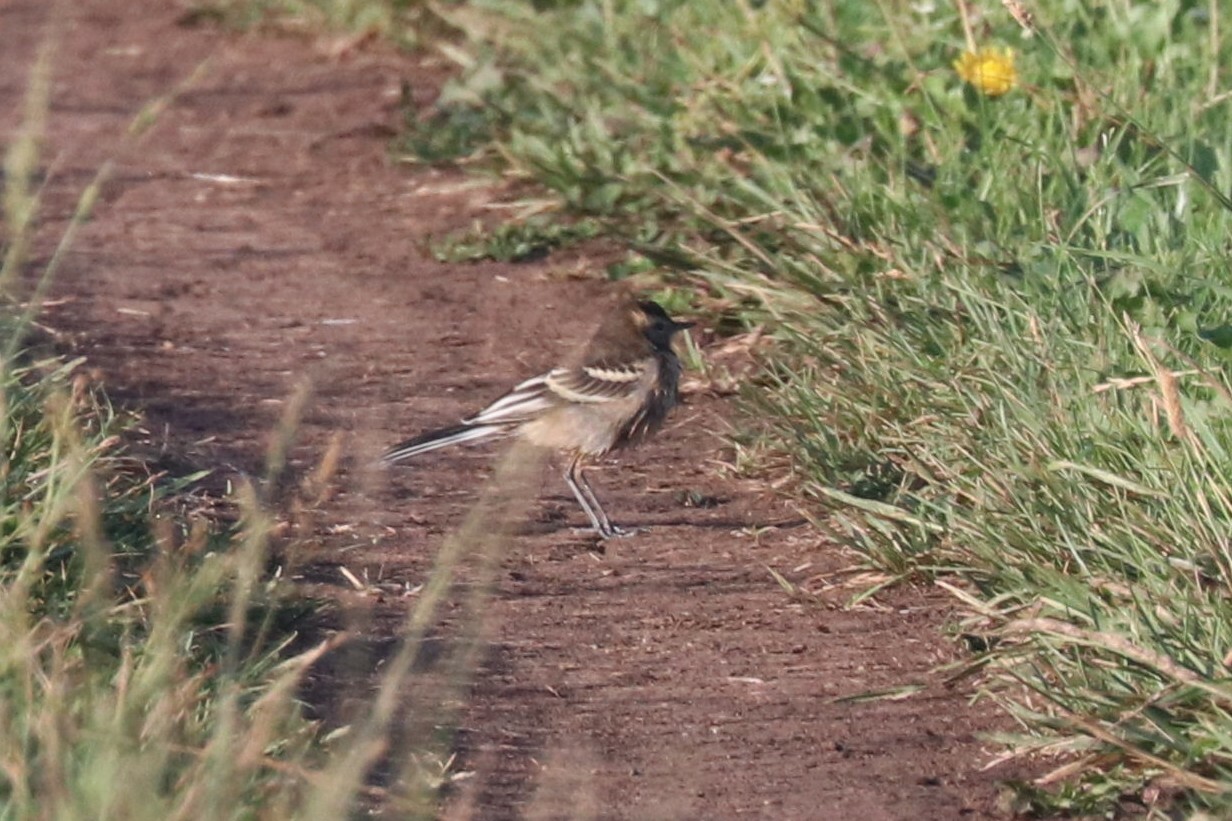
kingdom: Animalia
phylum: Chordata
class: Aves
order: Passeriformes
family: Motacillidae
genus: Motacilla
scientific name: Motacilla alba
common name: White wagtail
